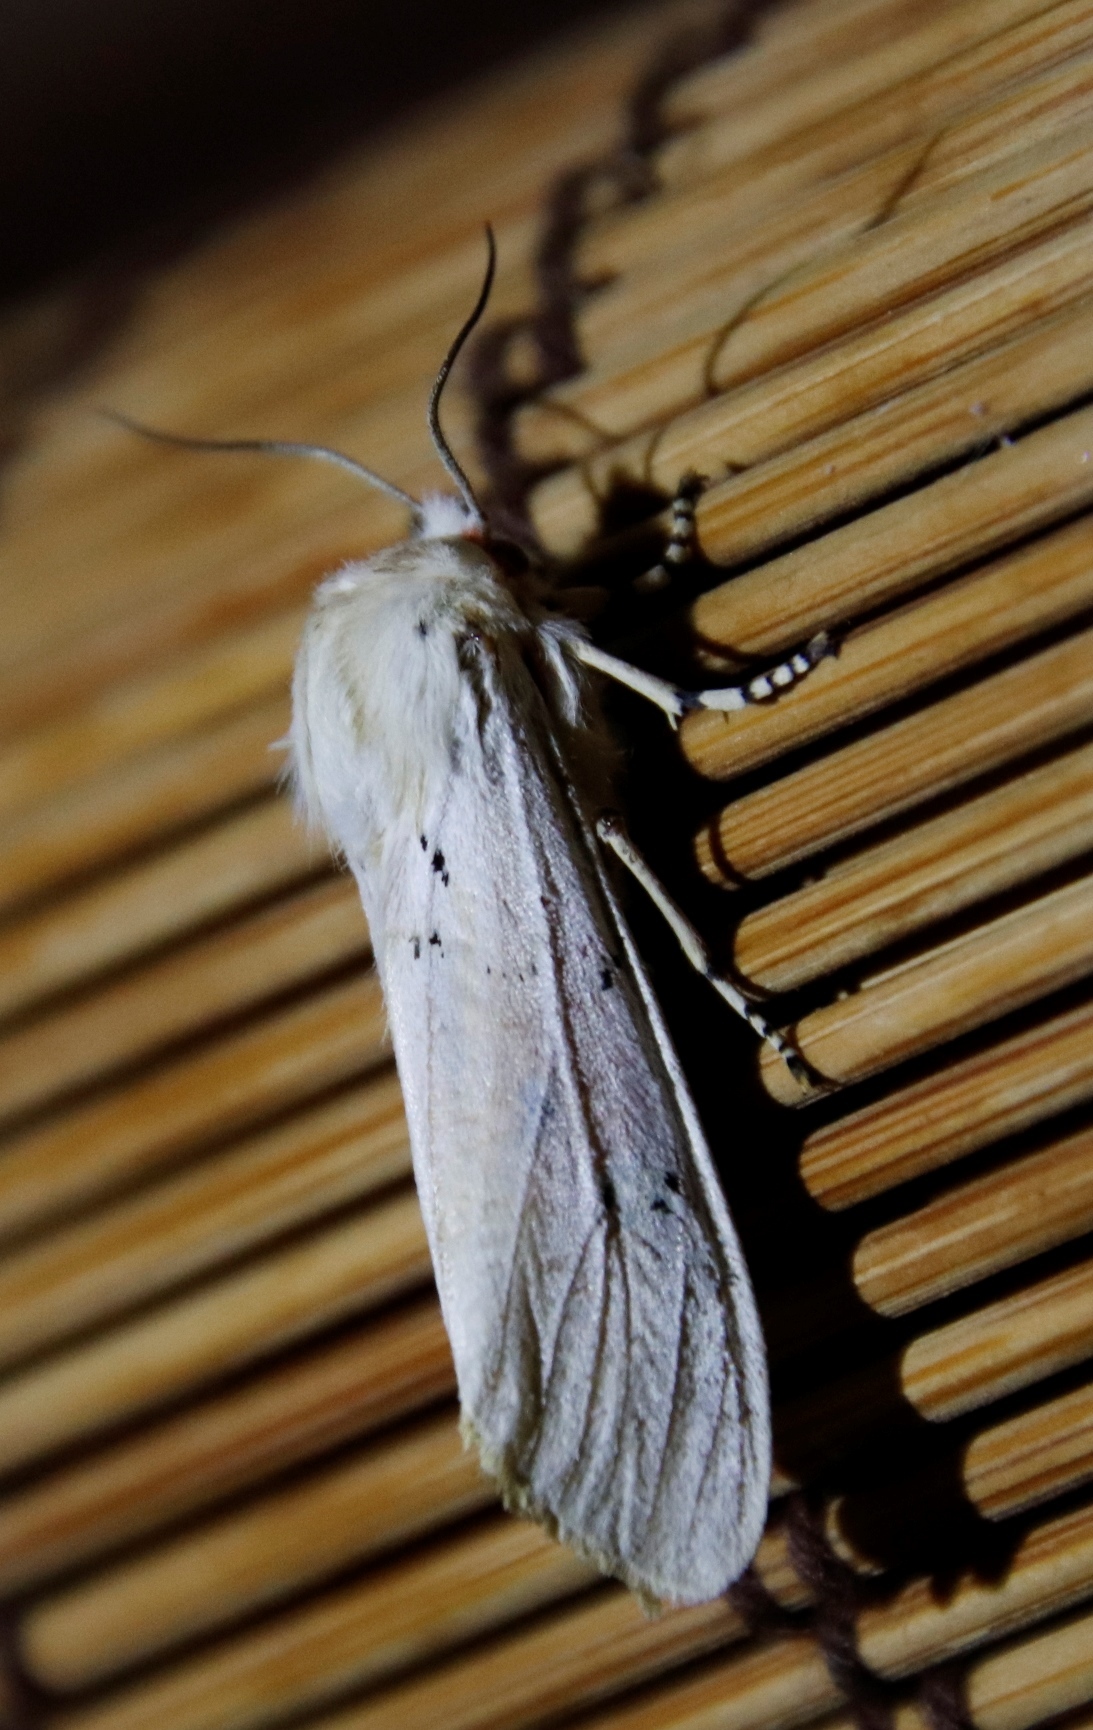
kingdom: Animalia
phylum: Arthropoda
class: Insecta
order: Lepidoptera
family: Erebidae
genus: Rhodogastria
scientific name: Rhodogastria amasis
